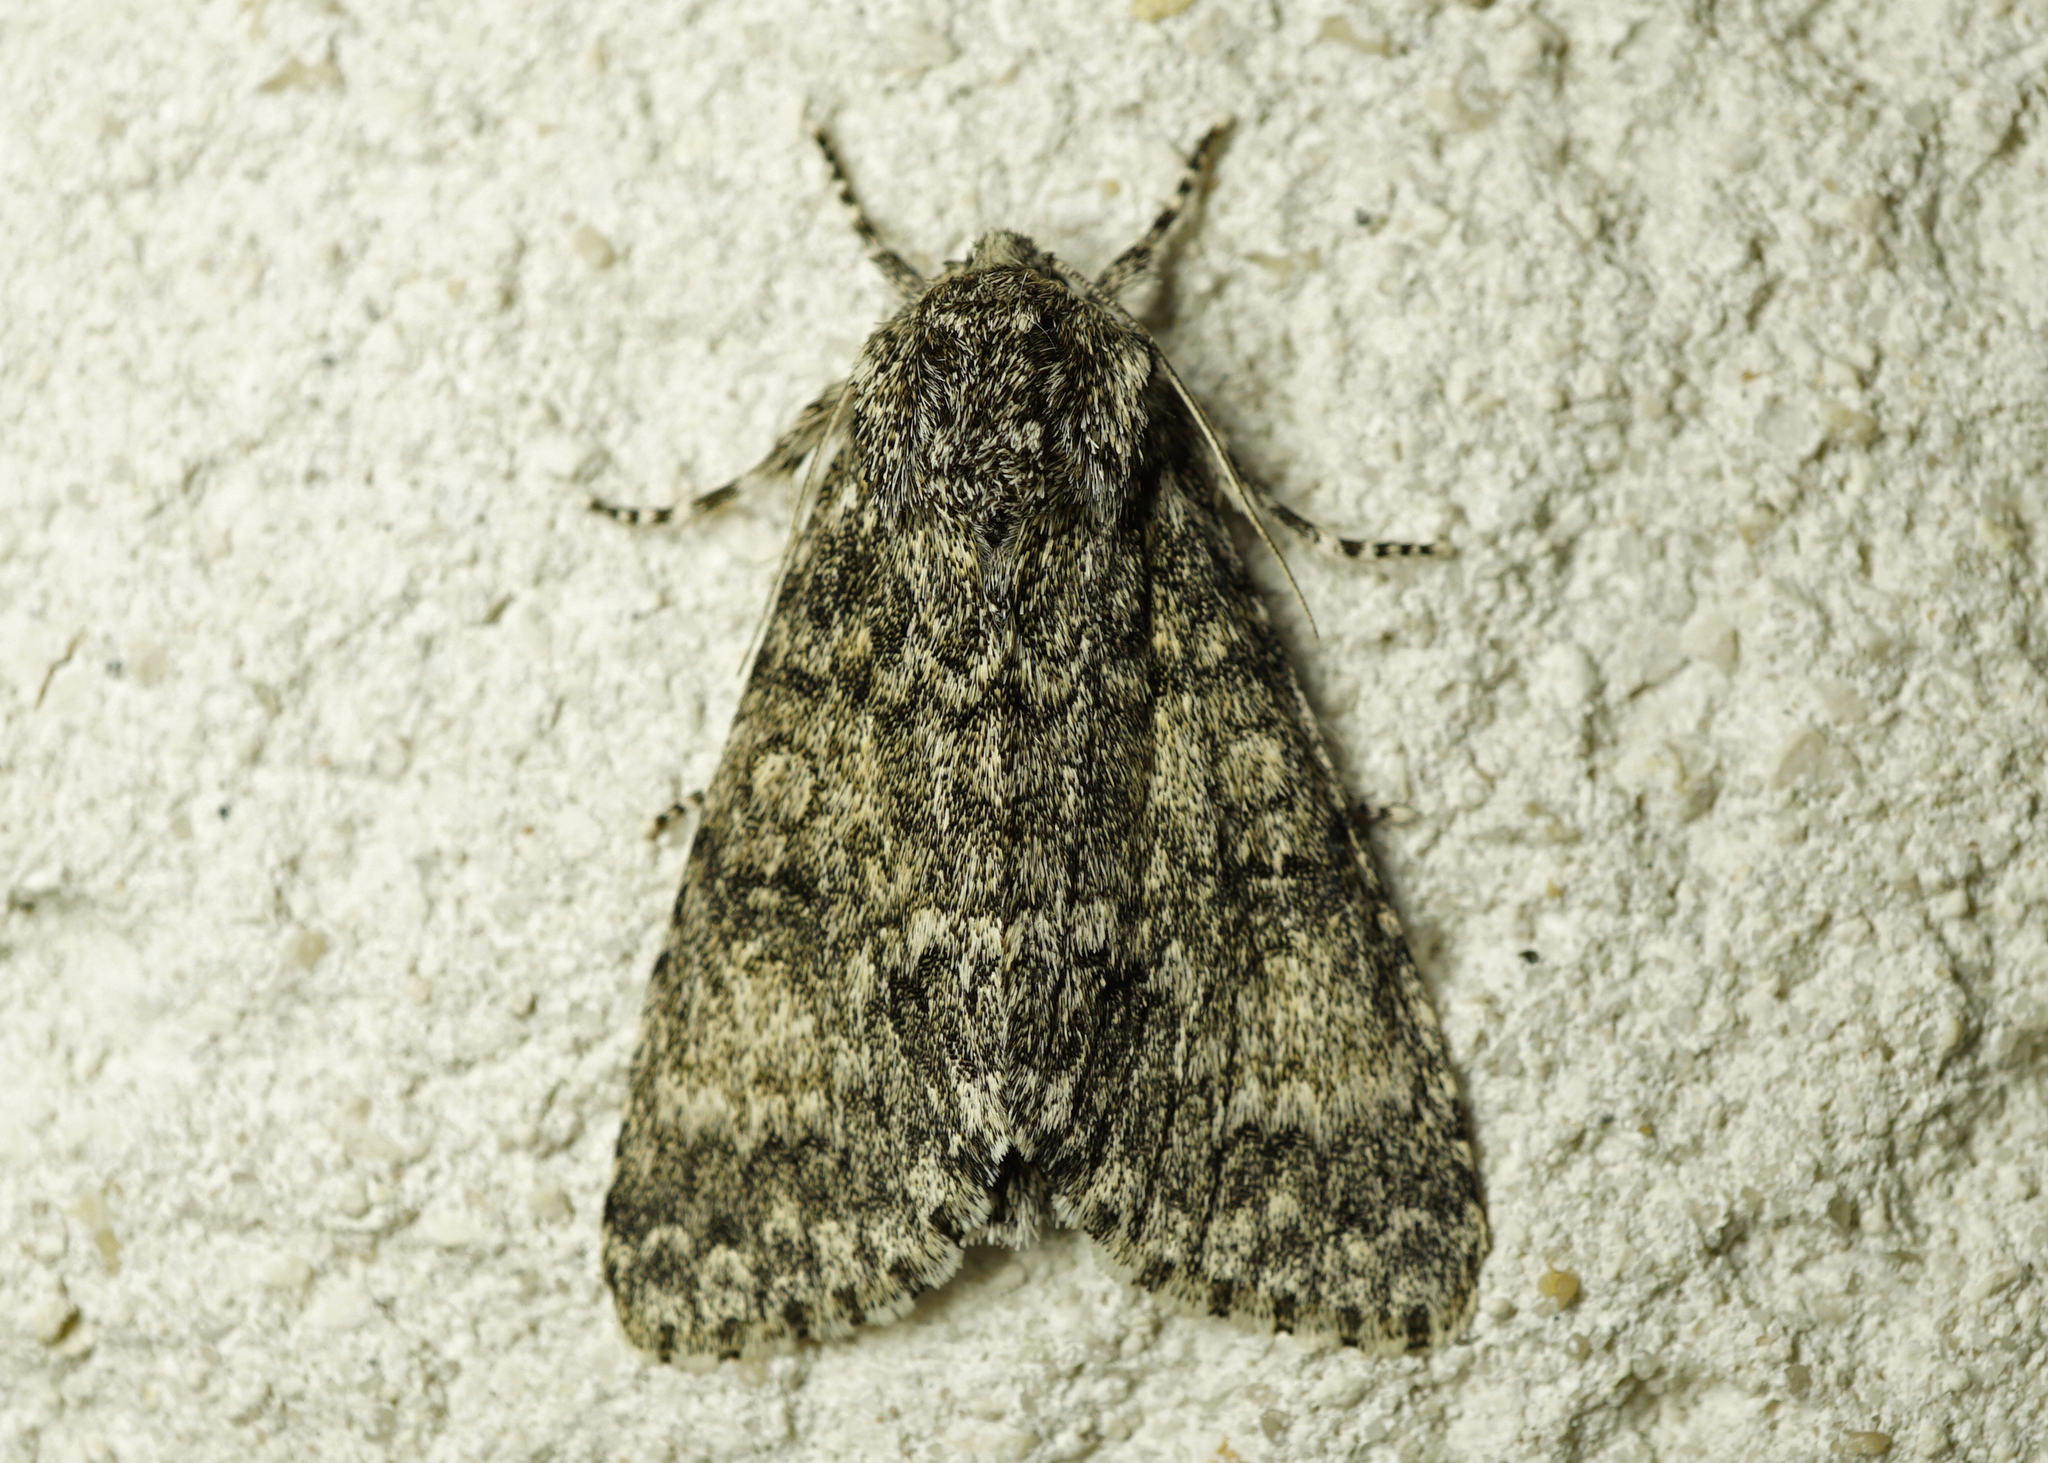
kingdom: Animalia
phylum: Arthropoda
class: Insecta
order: Lepidoptera
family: Noctuidae
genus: Acronicta
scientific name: Acronicta megacephala
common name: Poplar grey
